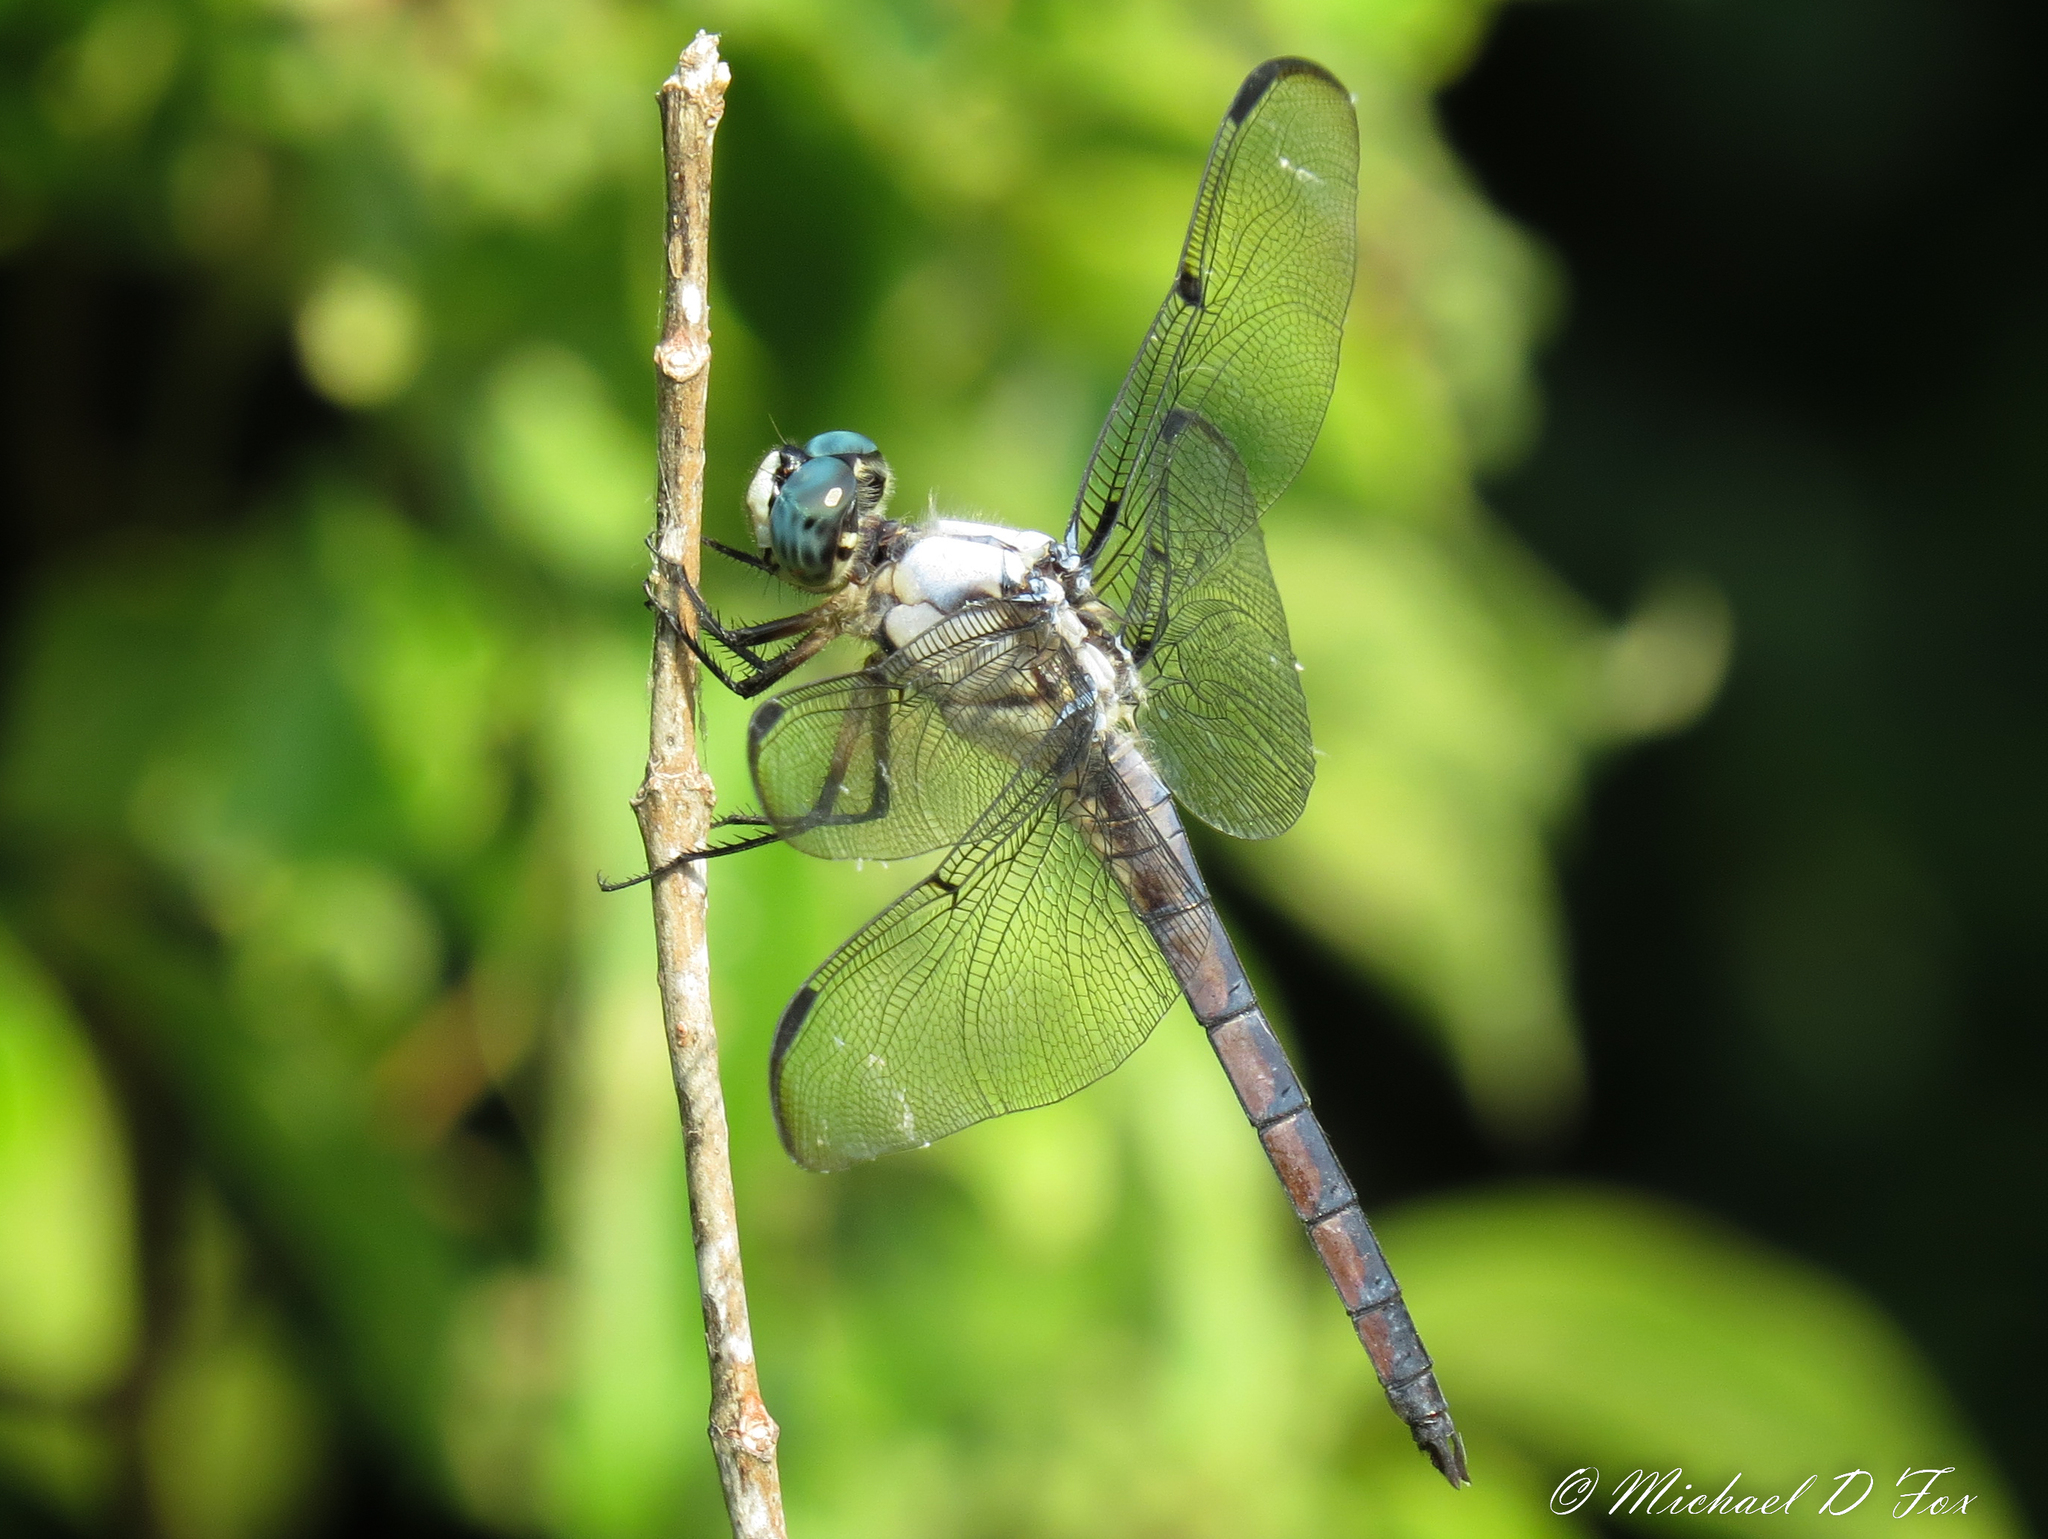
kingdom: Animalia
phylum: Arthropoda
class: Insecta
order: Odonata
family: Libellulidae
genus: Libellula
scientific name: Libellula vibrans
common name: Great blue skimmer
